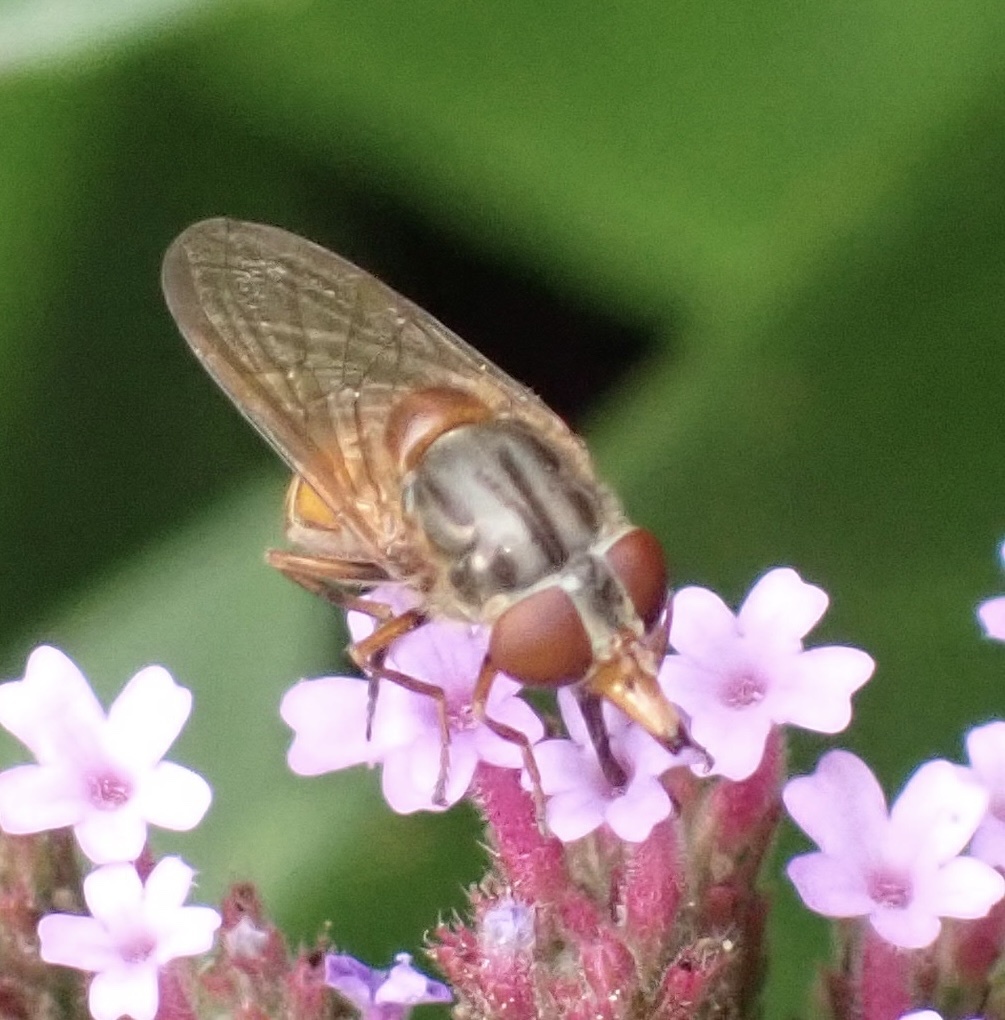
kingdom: Animalia
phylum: Arthropoda
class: Insecta
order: Diptera
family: Syrphidae
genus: Rhingia
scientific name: Rhingia campestris
